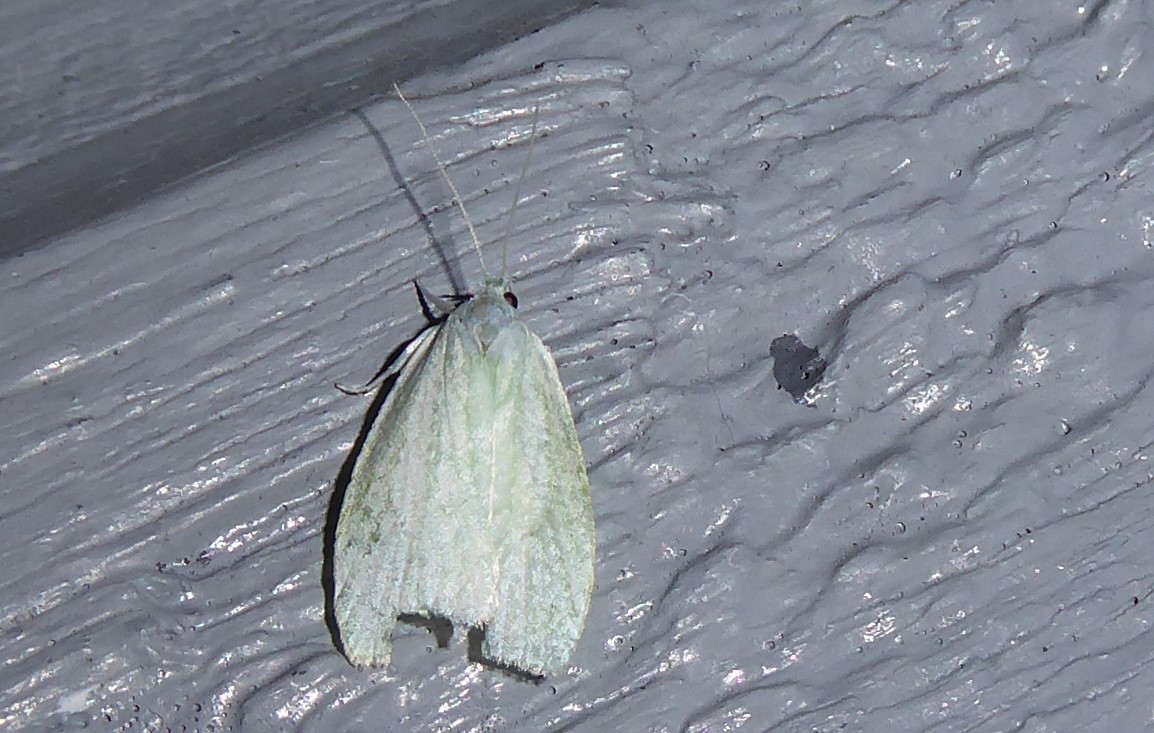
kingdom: Animalia
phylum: Arthropoda
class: Insecta
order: Lepidoptera
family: Oecophoridae
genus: Nymphostola
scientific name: Nymphostola galactina
